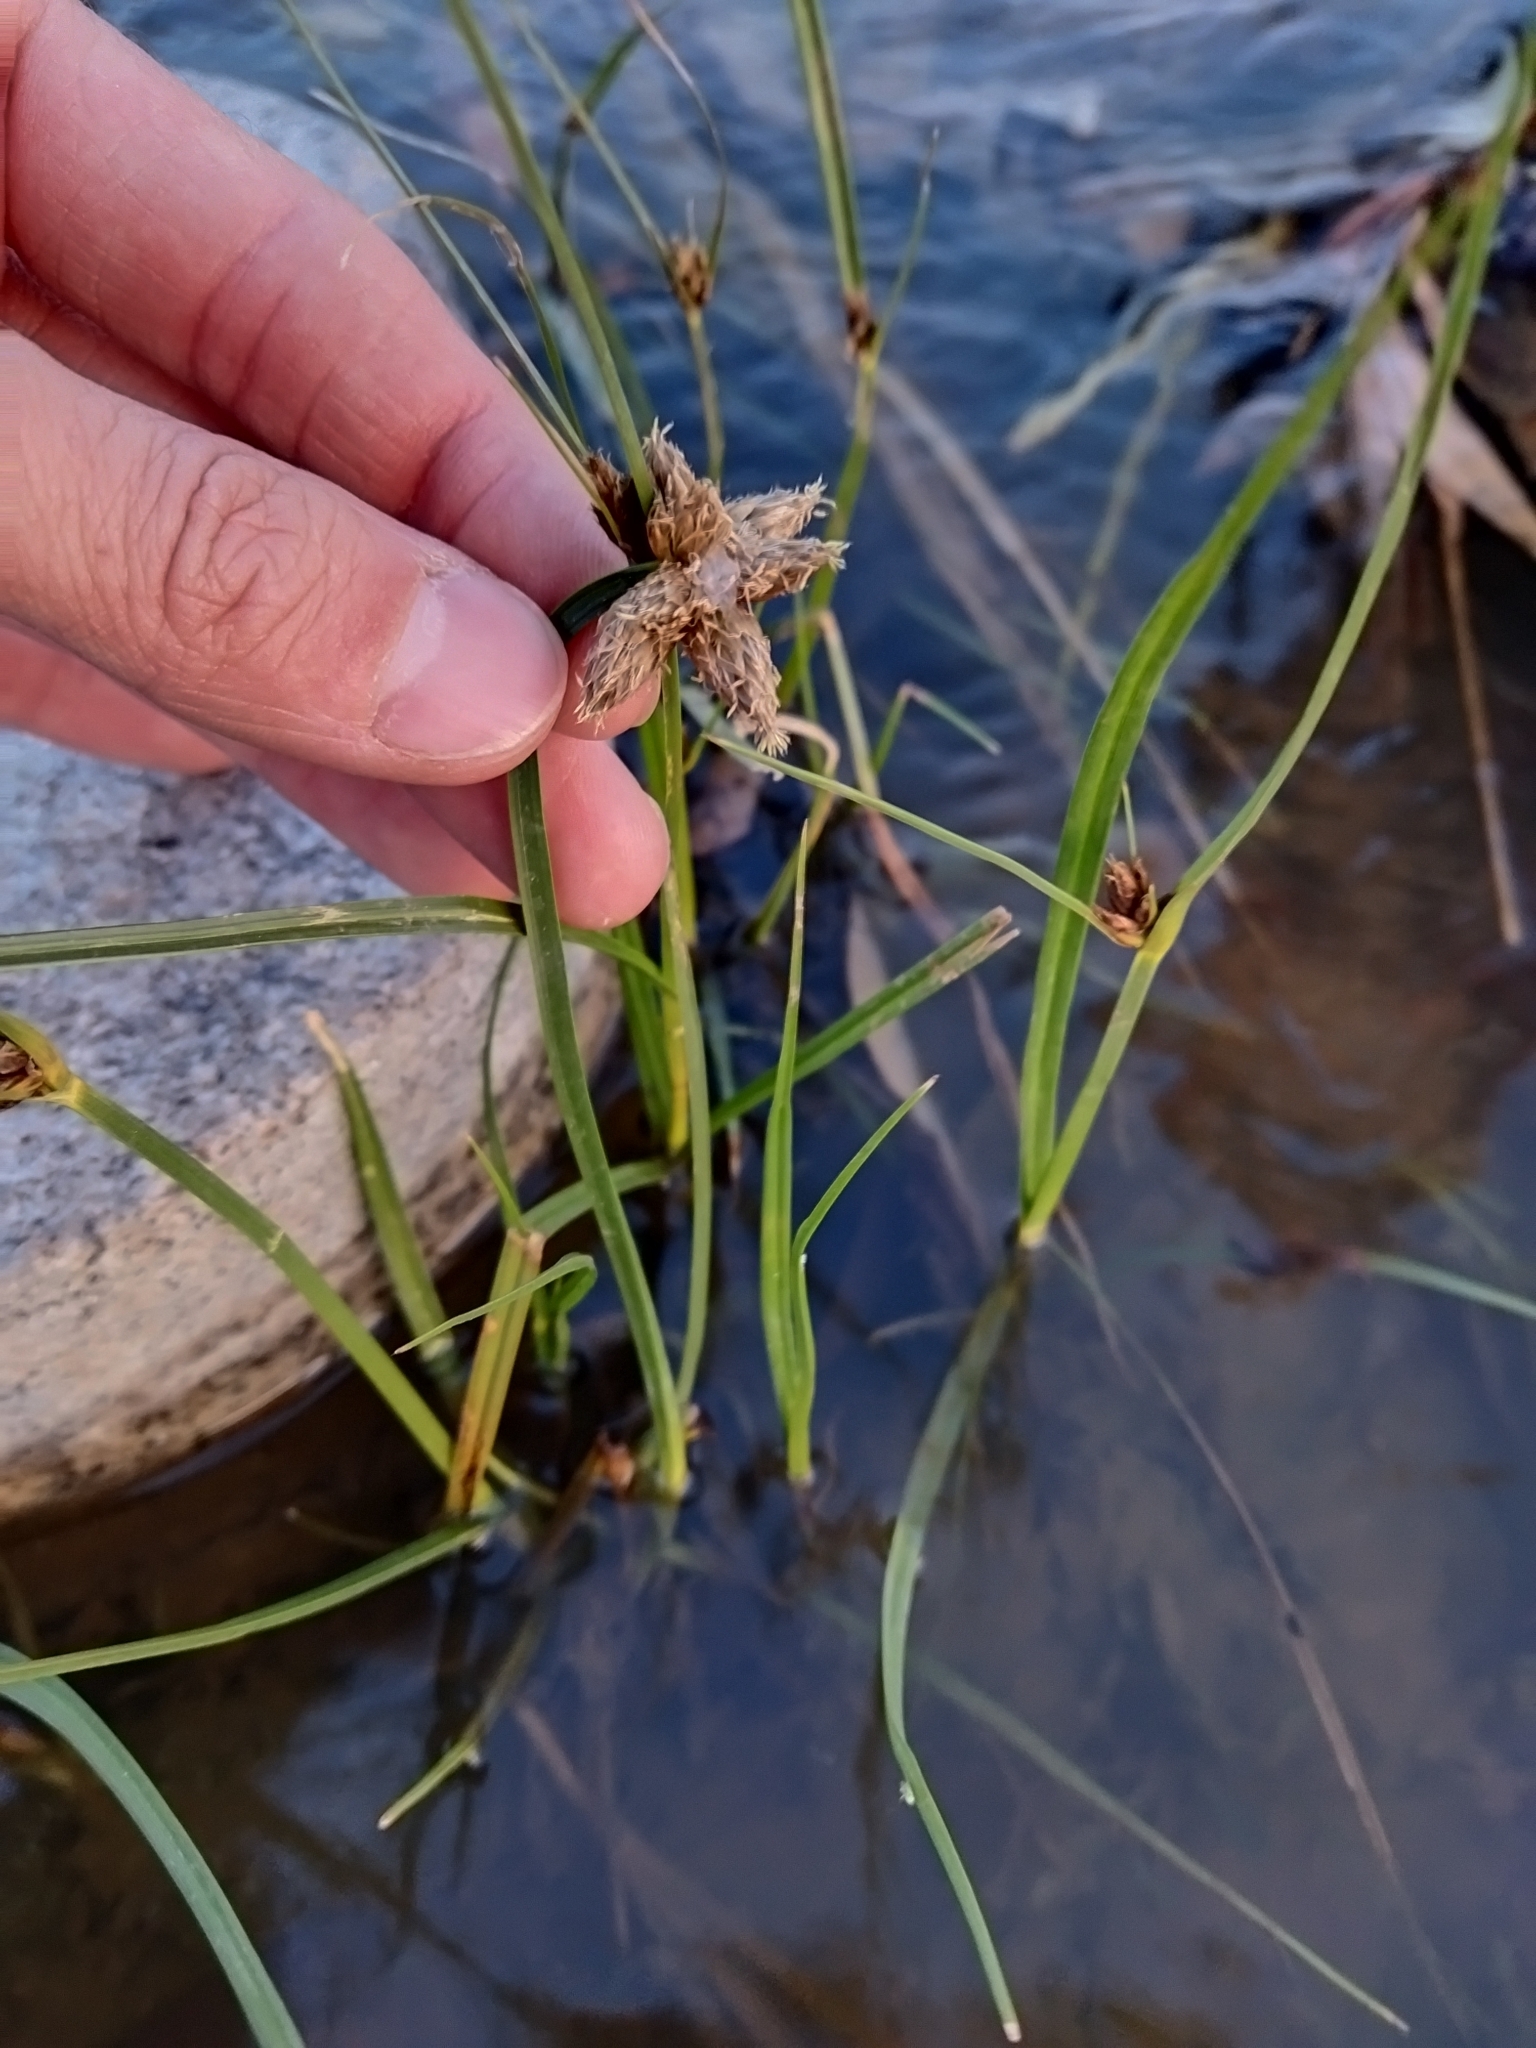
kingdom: Plantae
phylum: Tracheophyta
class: Liliopsida
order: Poales
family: Cyperaceae
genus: Bolboschoenus
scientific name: Bolboschoenus maritimus
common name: Sea club-rush
